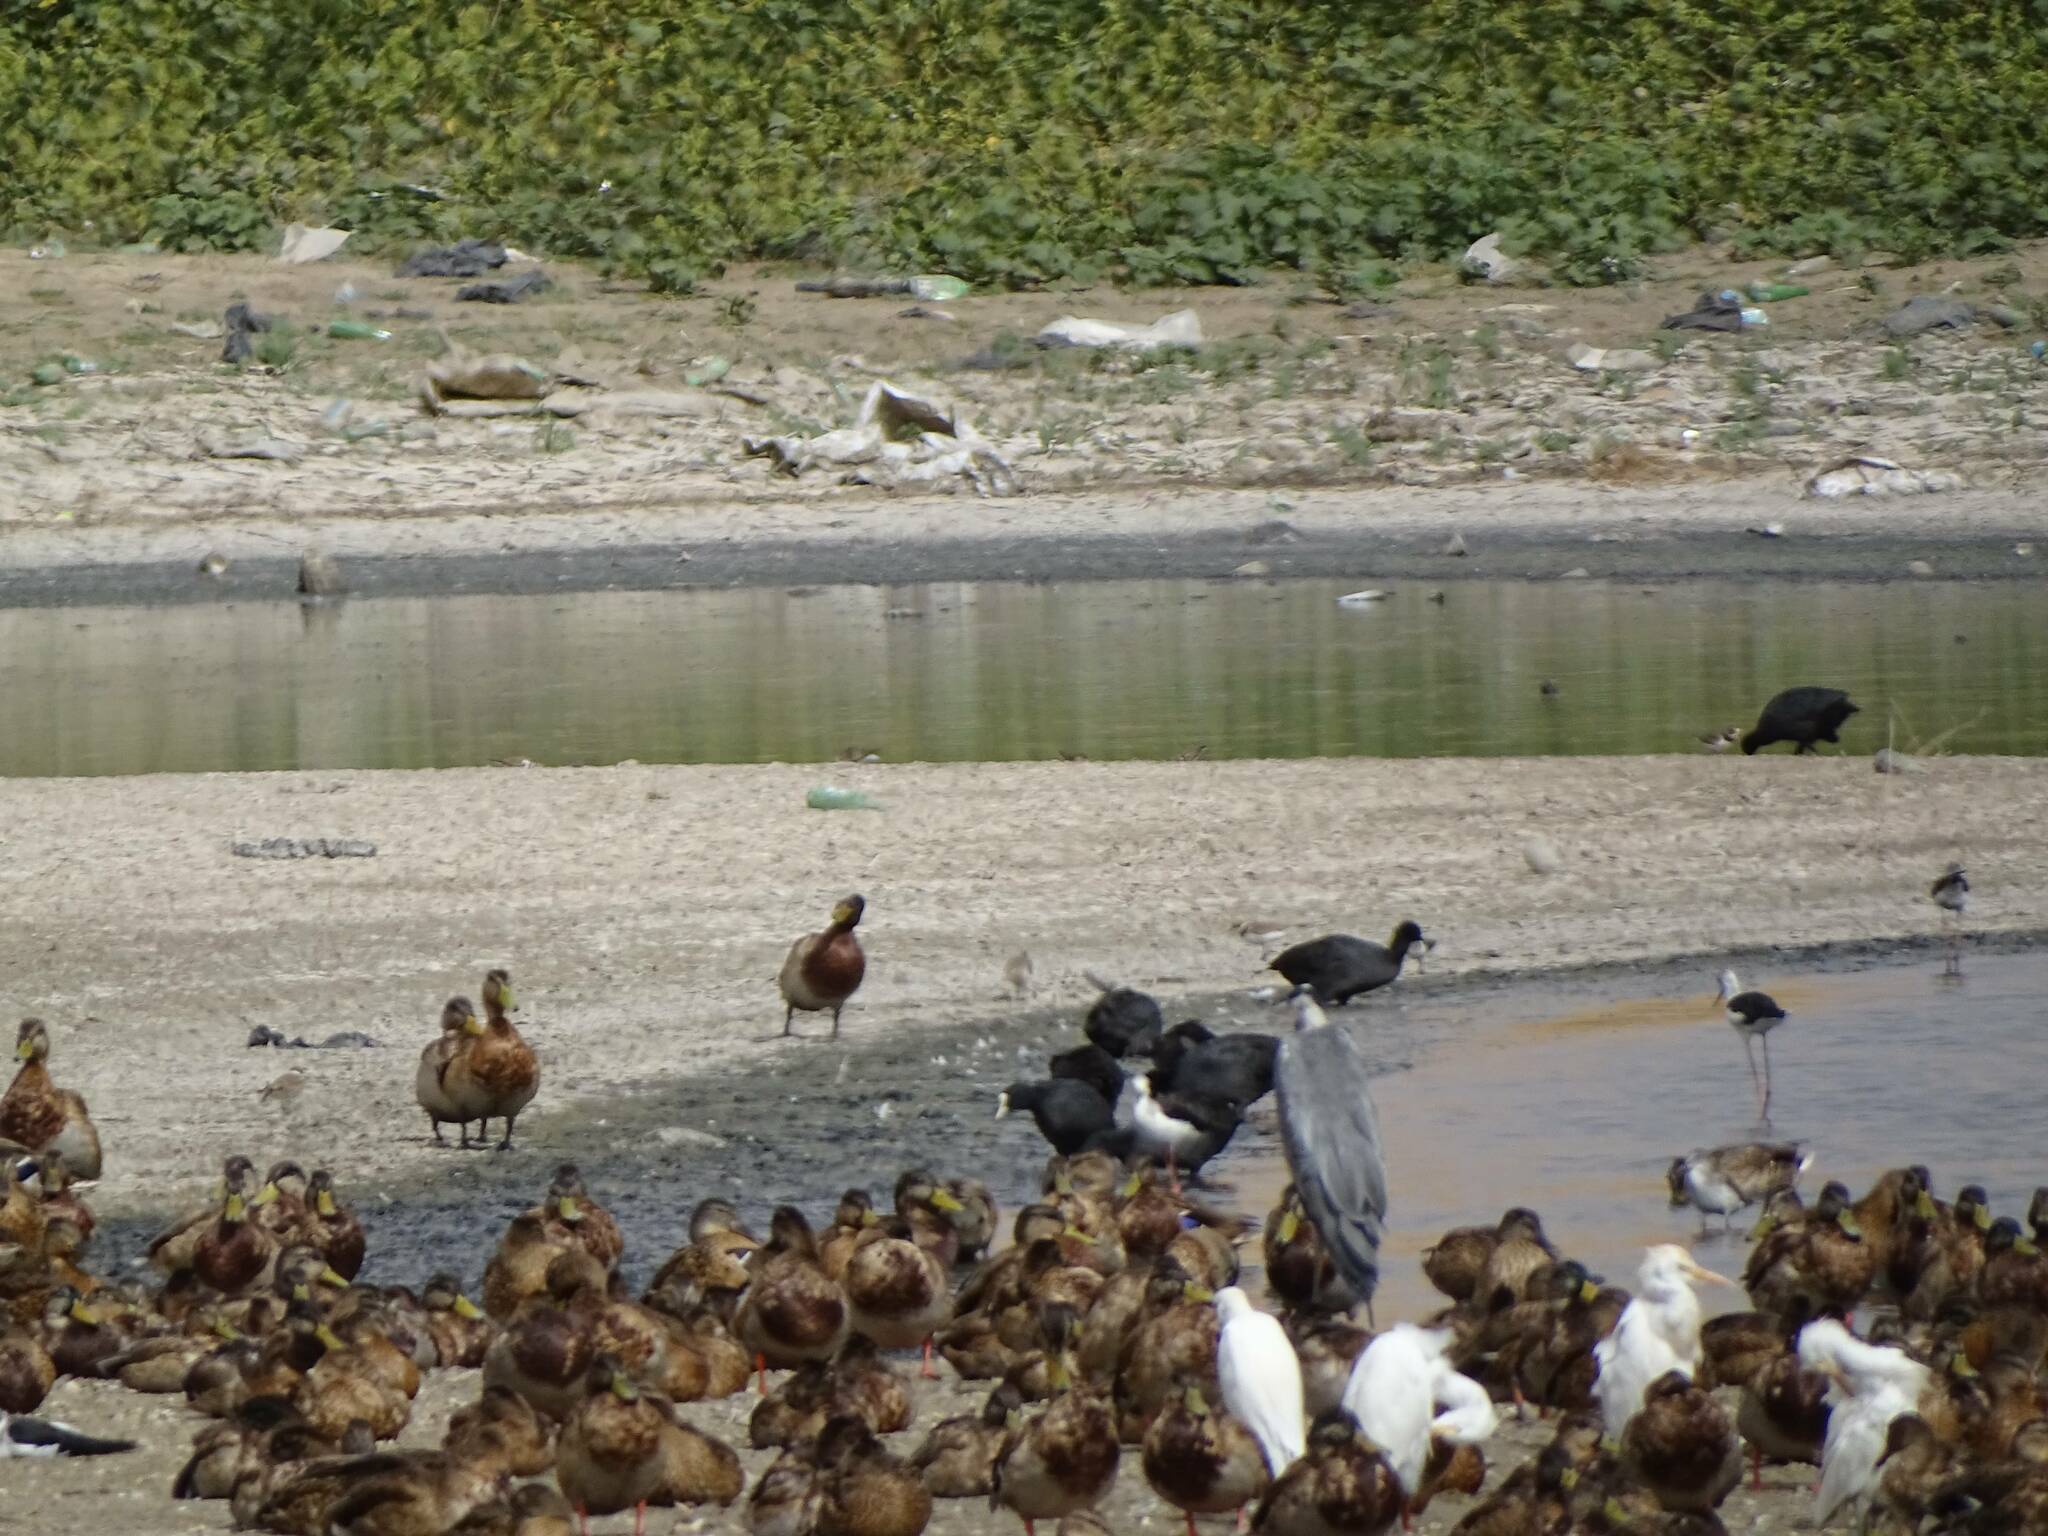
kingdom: Animalia
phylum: Chordata
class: Aves
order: Anseriformes
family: Anatidae
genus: Anas
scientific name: Anas platyrhynchos
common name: Mallard
